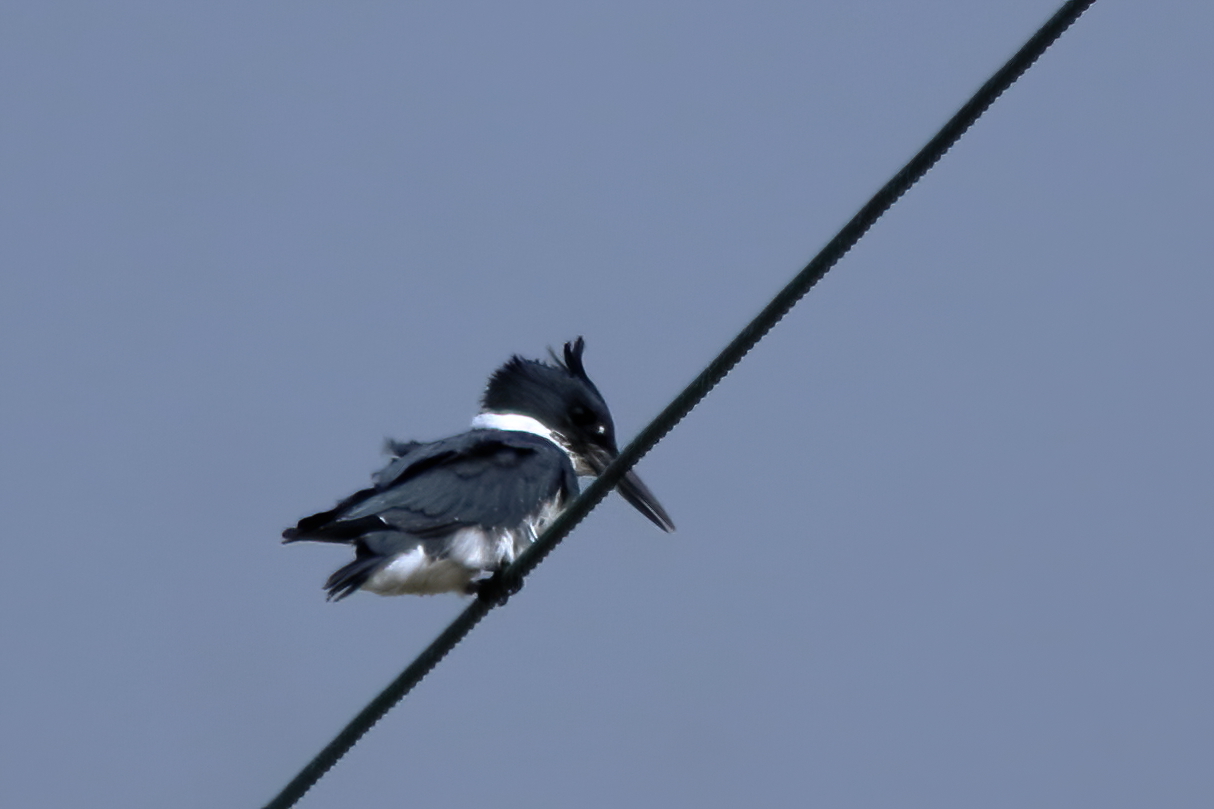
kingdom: Animalia
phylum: Chordata
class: Aves
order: Coraciiformes
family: Alcedinidae
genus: Megaceryle
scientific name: Megaceryle alcyon
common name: Belted kingfisher
